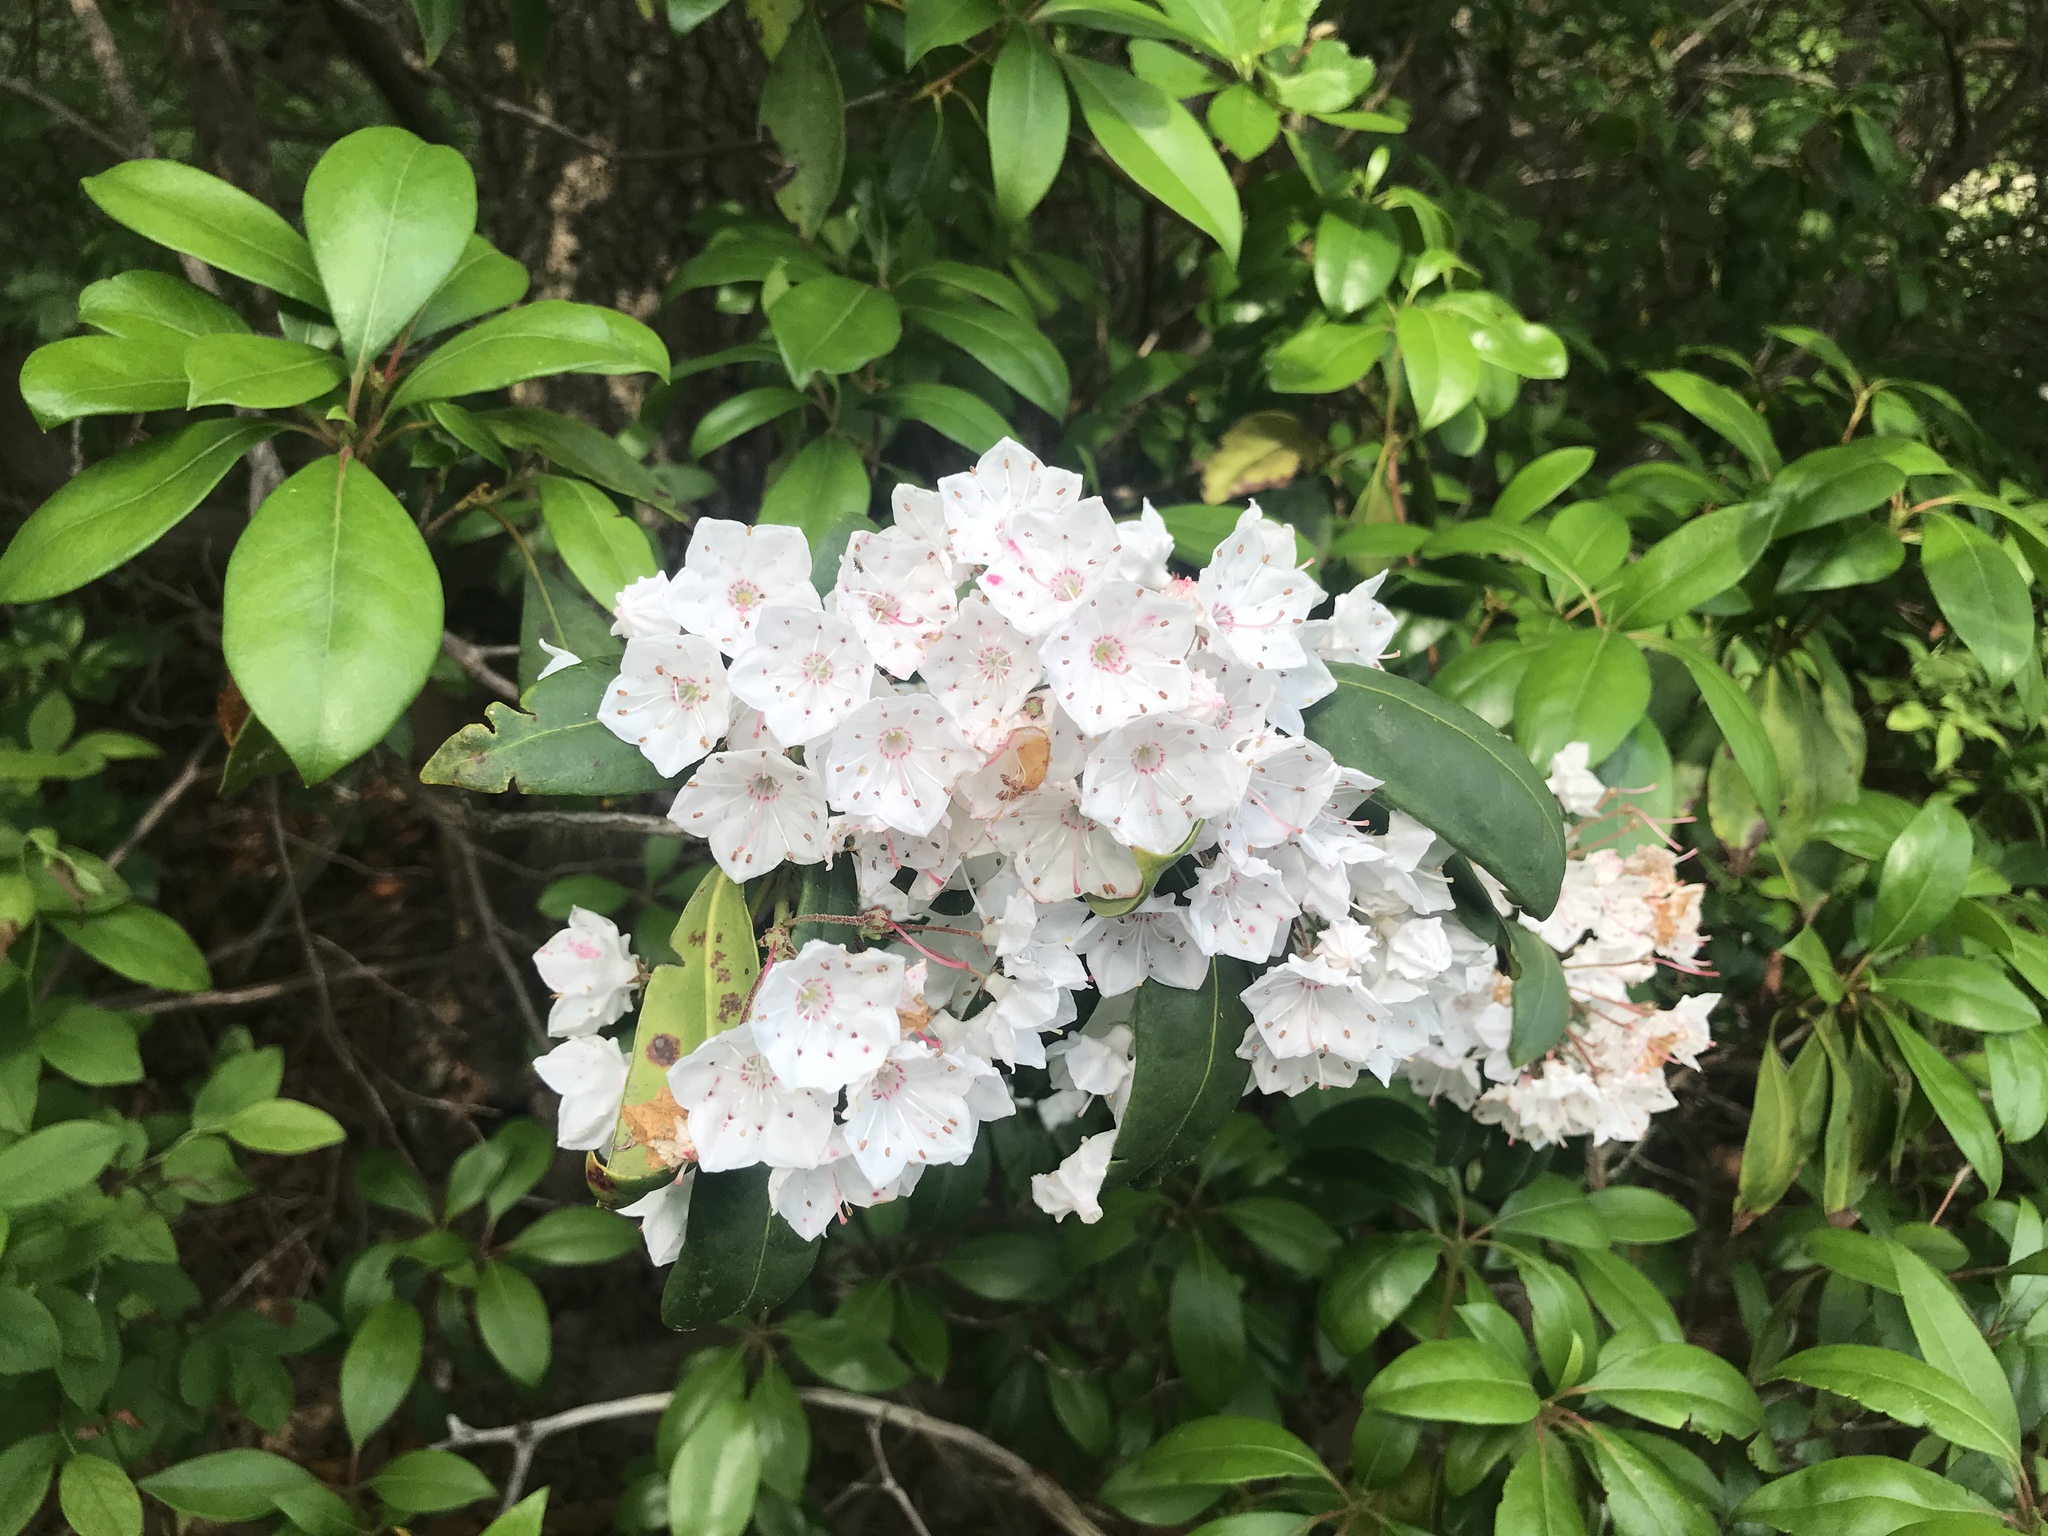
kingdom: Plantae
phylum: Tracheophyta
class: Magnoliopsida
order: Ericales
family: Ericaceae
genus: Kalmia
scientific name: Kalmia latifolia
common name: Mountain-laurel
